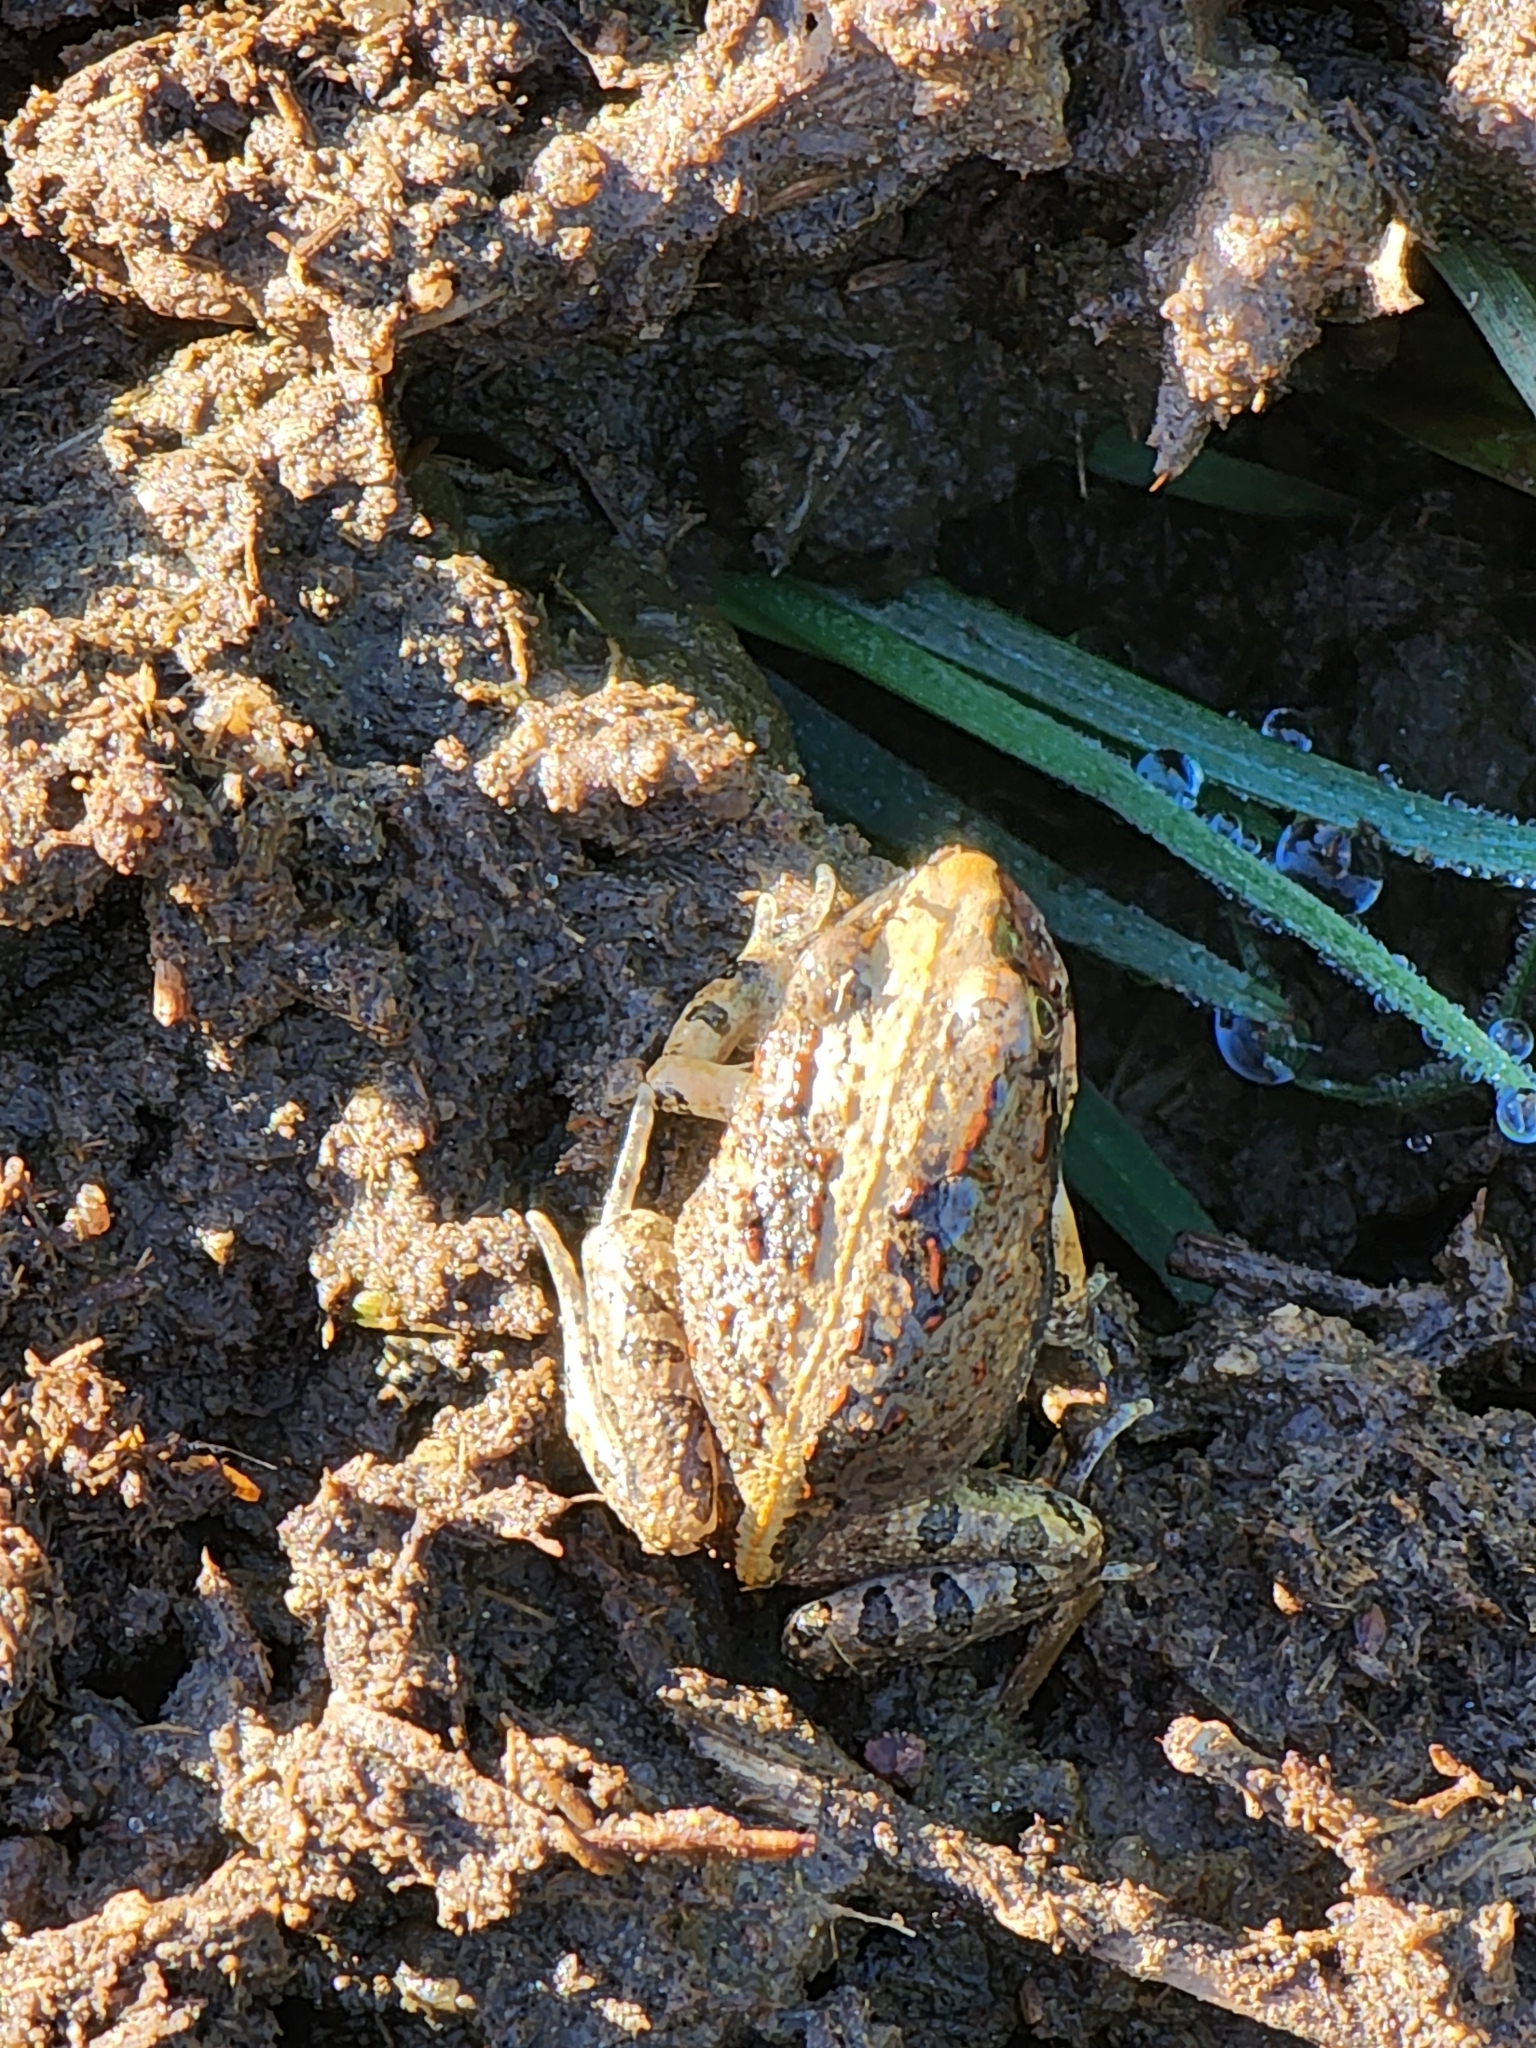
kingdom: Animalia
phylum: Chordata
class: Amphibia
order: Anura
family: Limnodynastidae
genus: Platyplectrum
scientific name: Platyplectrum ornatum
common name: Ornate burrowing frog
